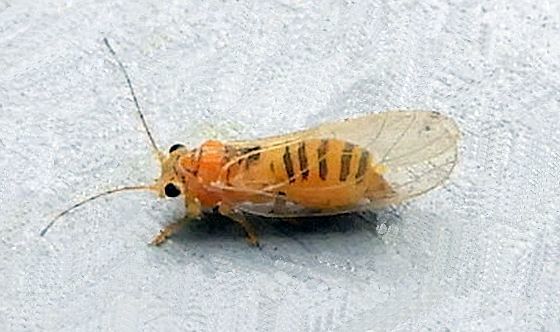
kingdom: Animalia
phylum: Arthropoda
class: Insecta
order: Hemiptera
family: Psyllidae
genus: Cacopsylla
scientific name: Cacopsylla annulata
